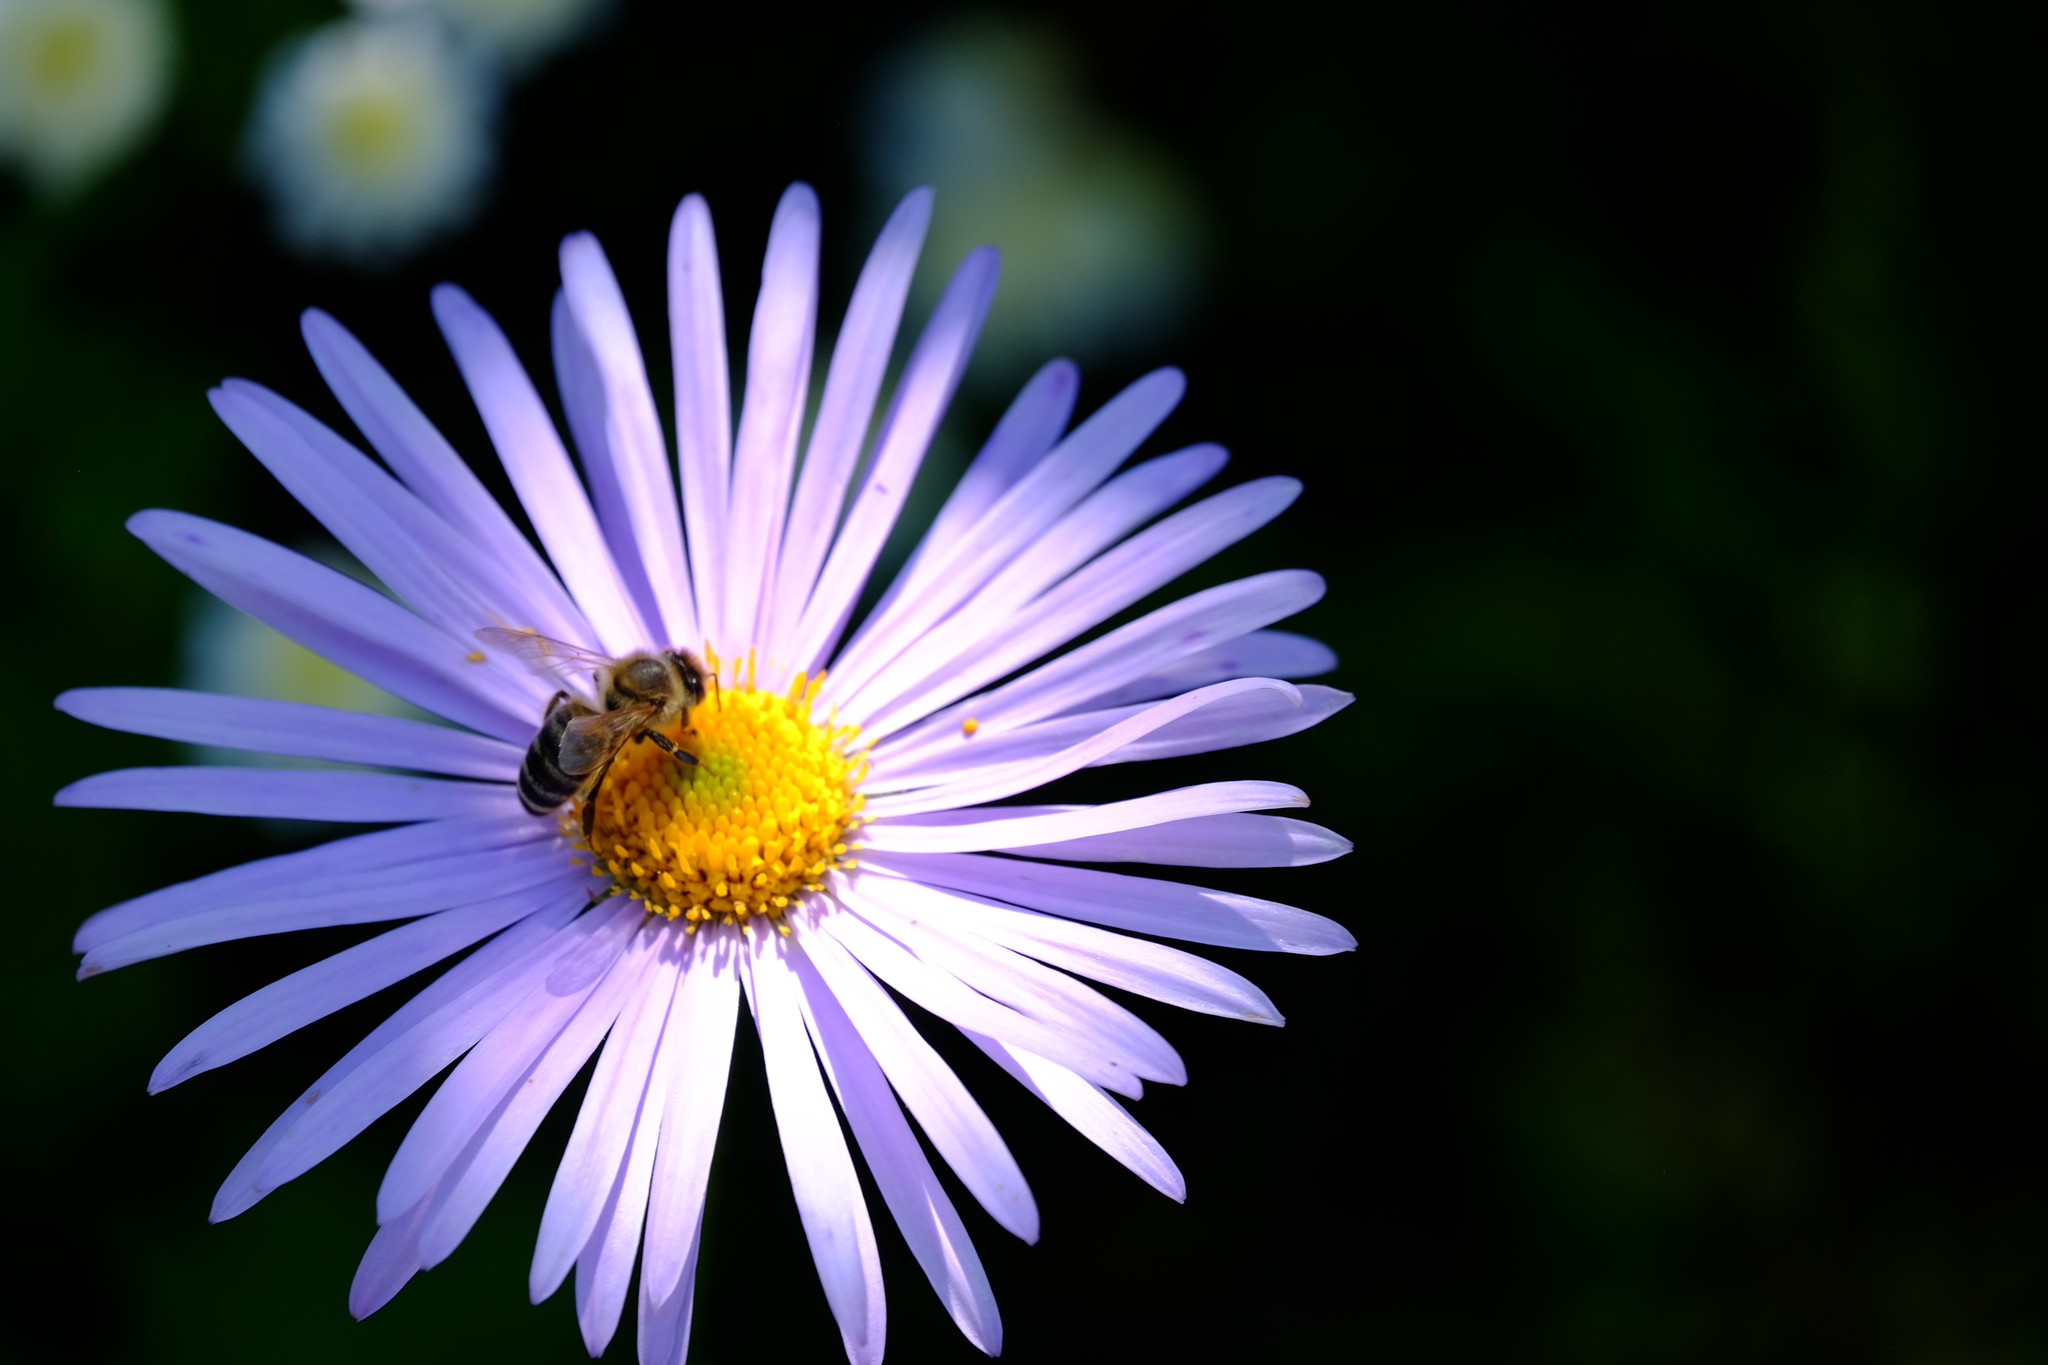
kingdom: Animalia
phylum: Arthropoda
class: Insecta
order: Hymenoptera
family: Apidae
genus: Apis
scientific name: Apis mellifera
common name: Honey bee
